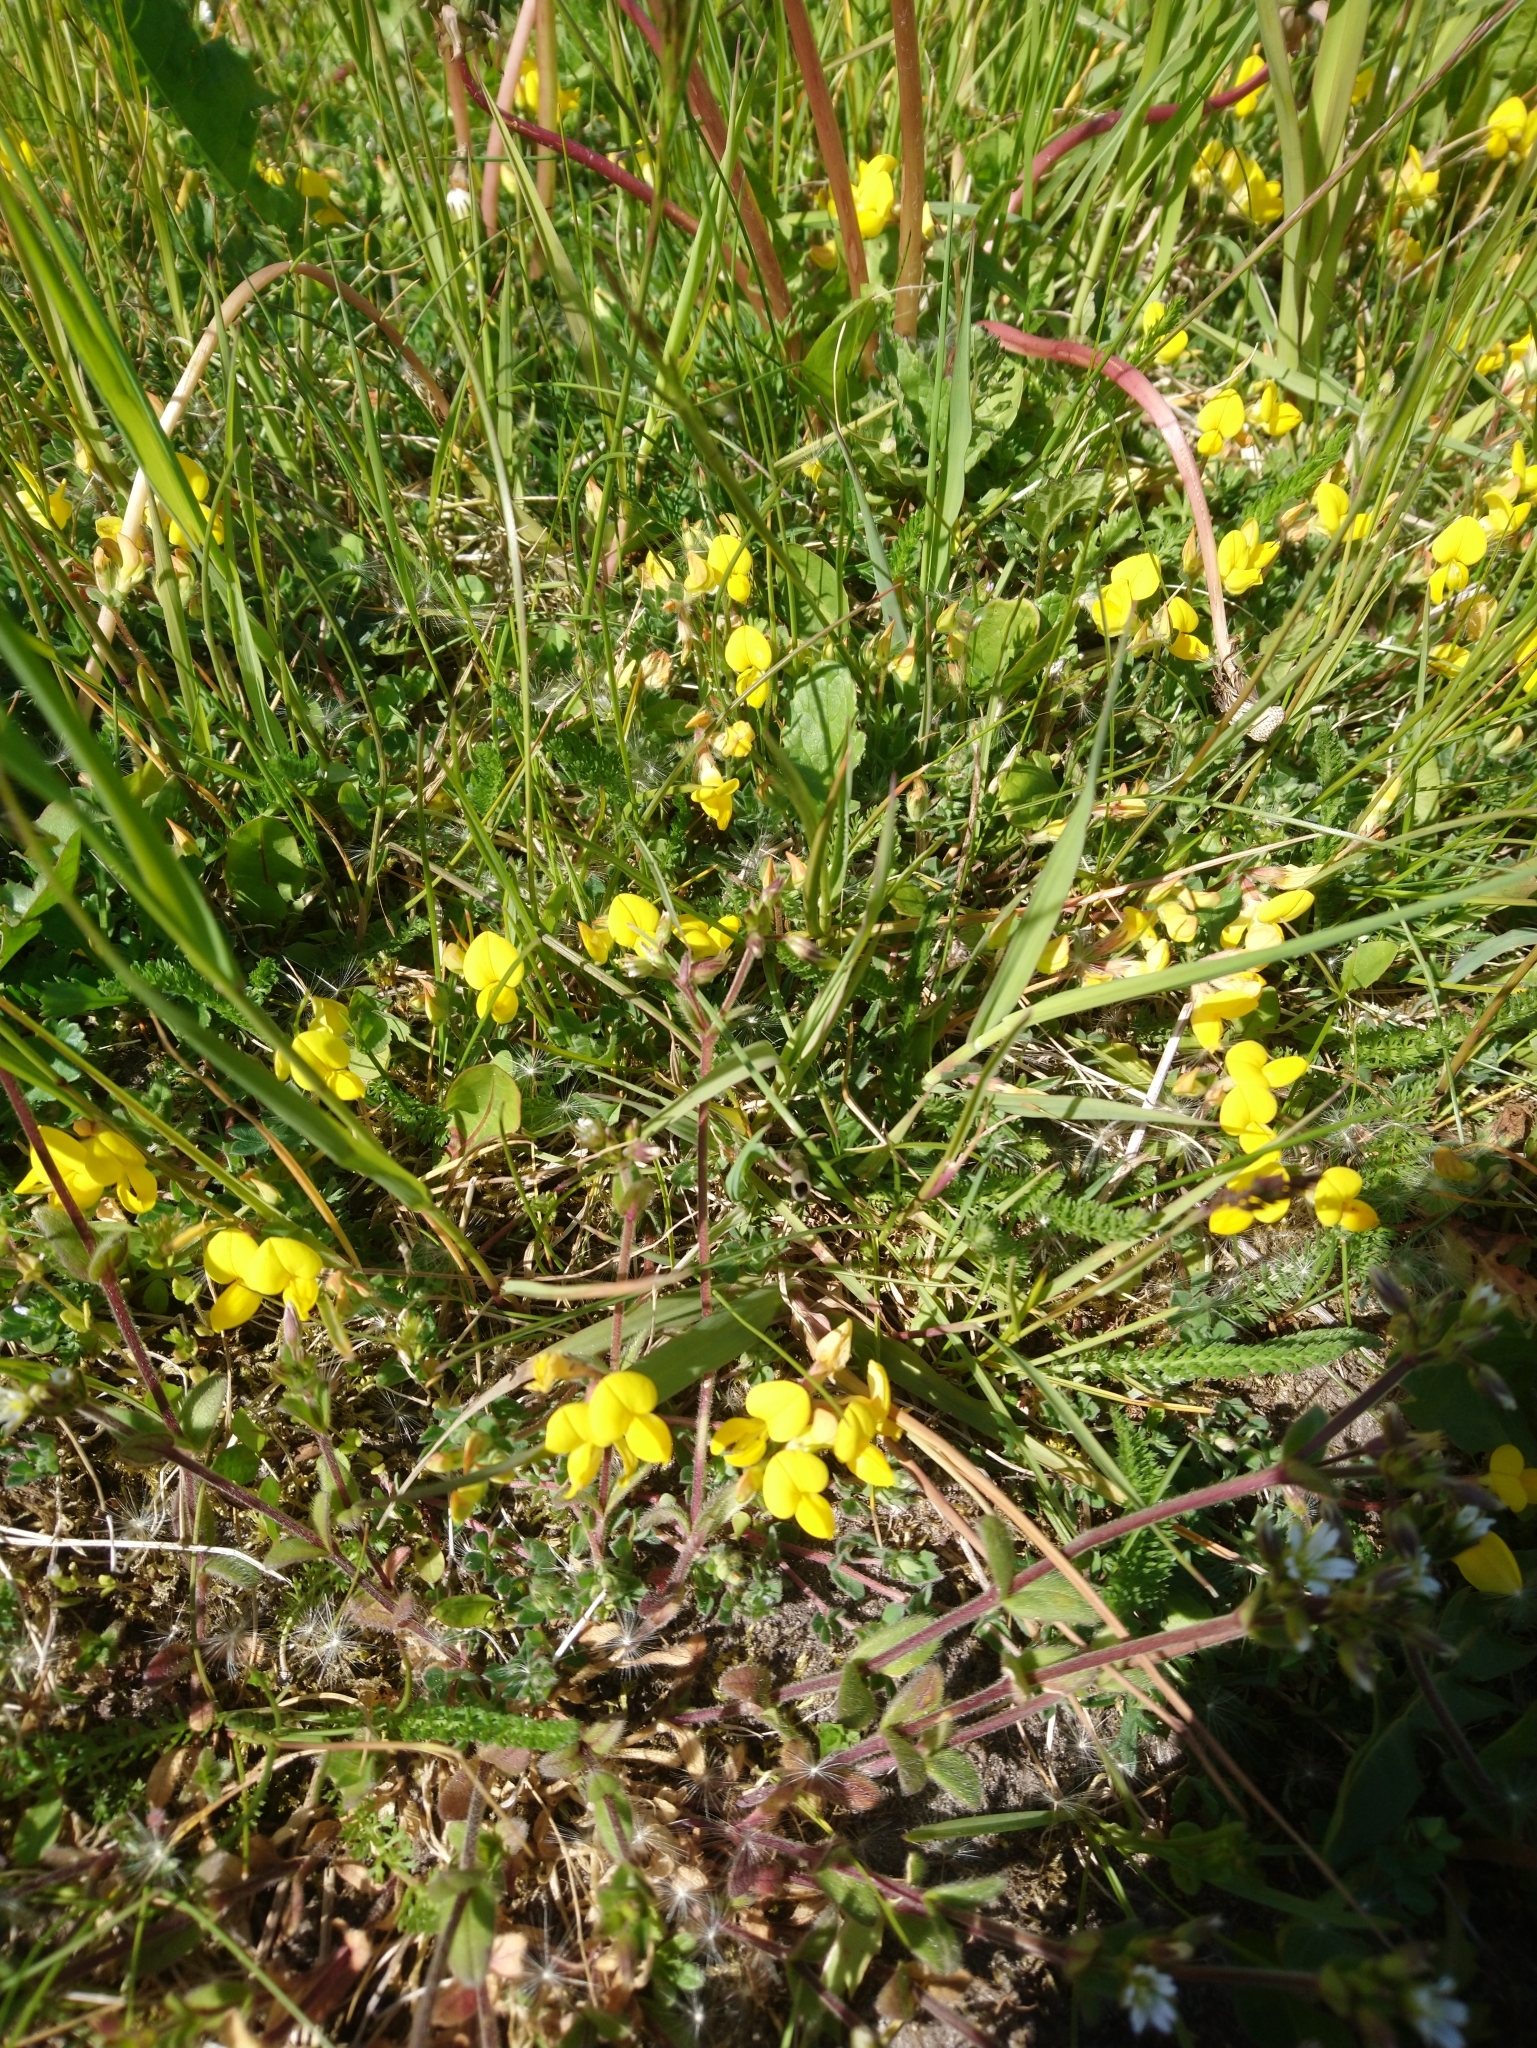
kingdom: Plantae
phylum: Tracheophyta
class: Magnoliopsida
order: Fabales
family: Fabaceae
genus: Lotus
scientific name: Lotus corniculatus
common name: Common bird's-foot-trefoil
